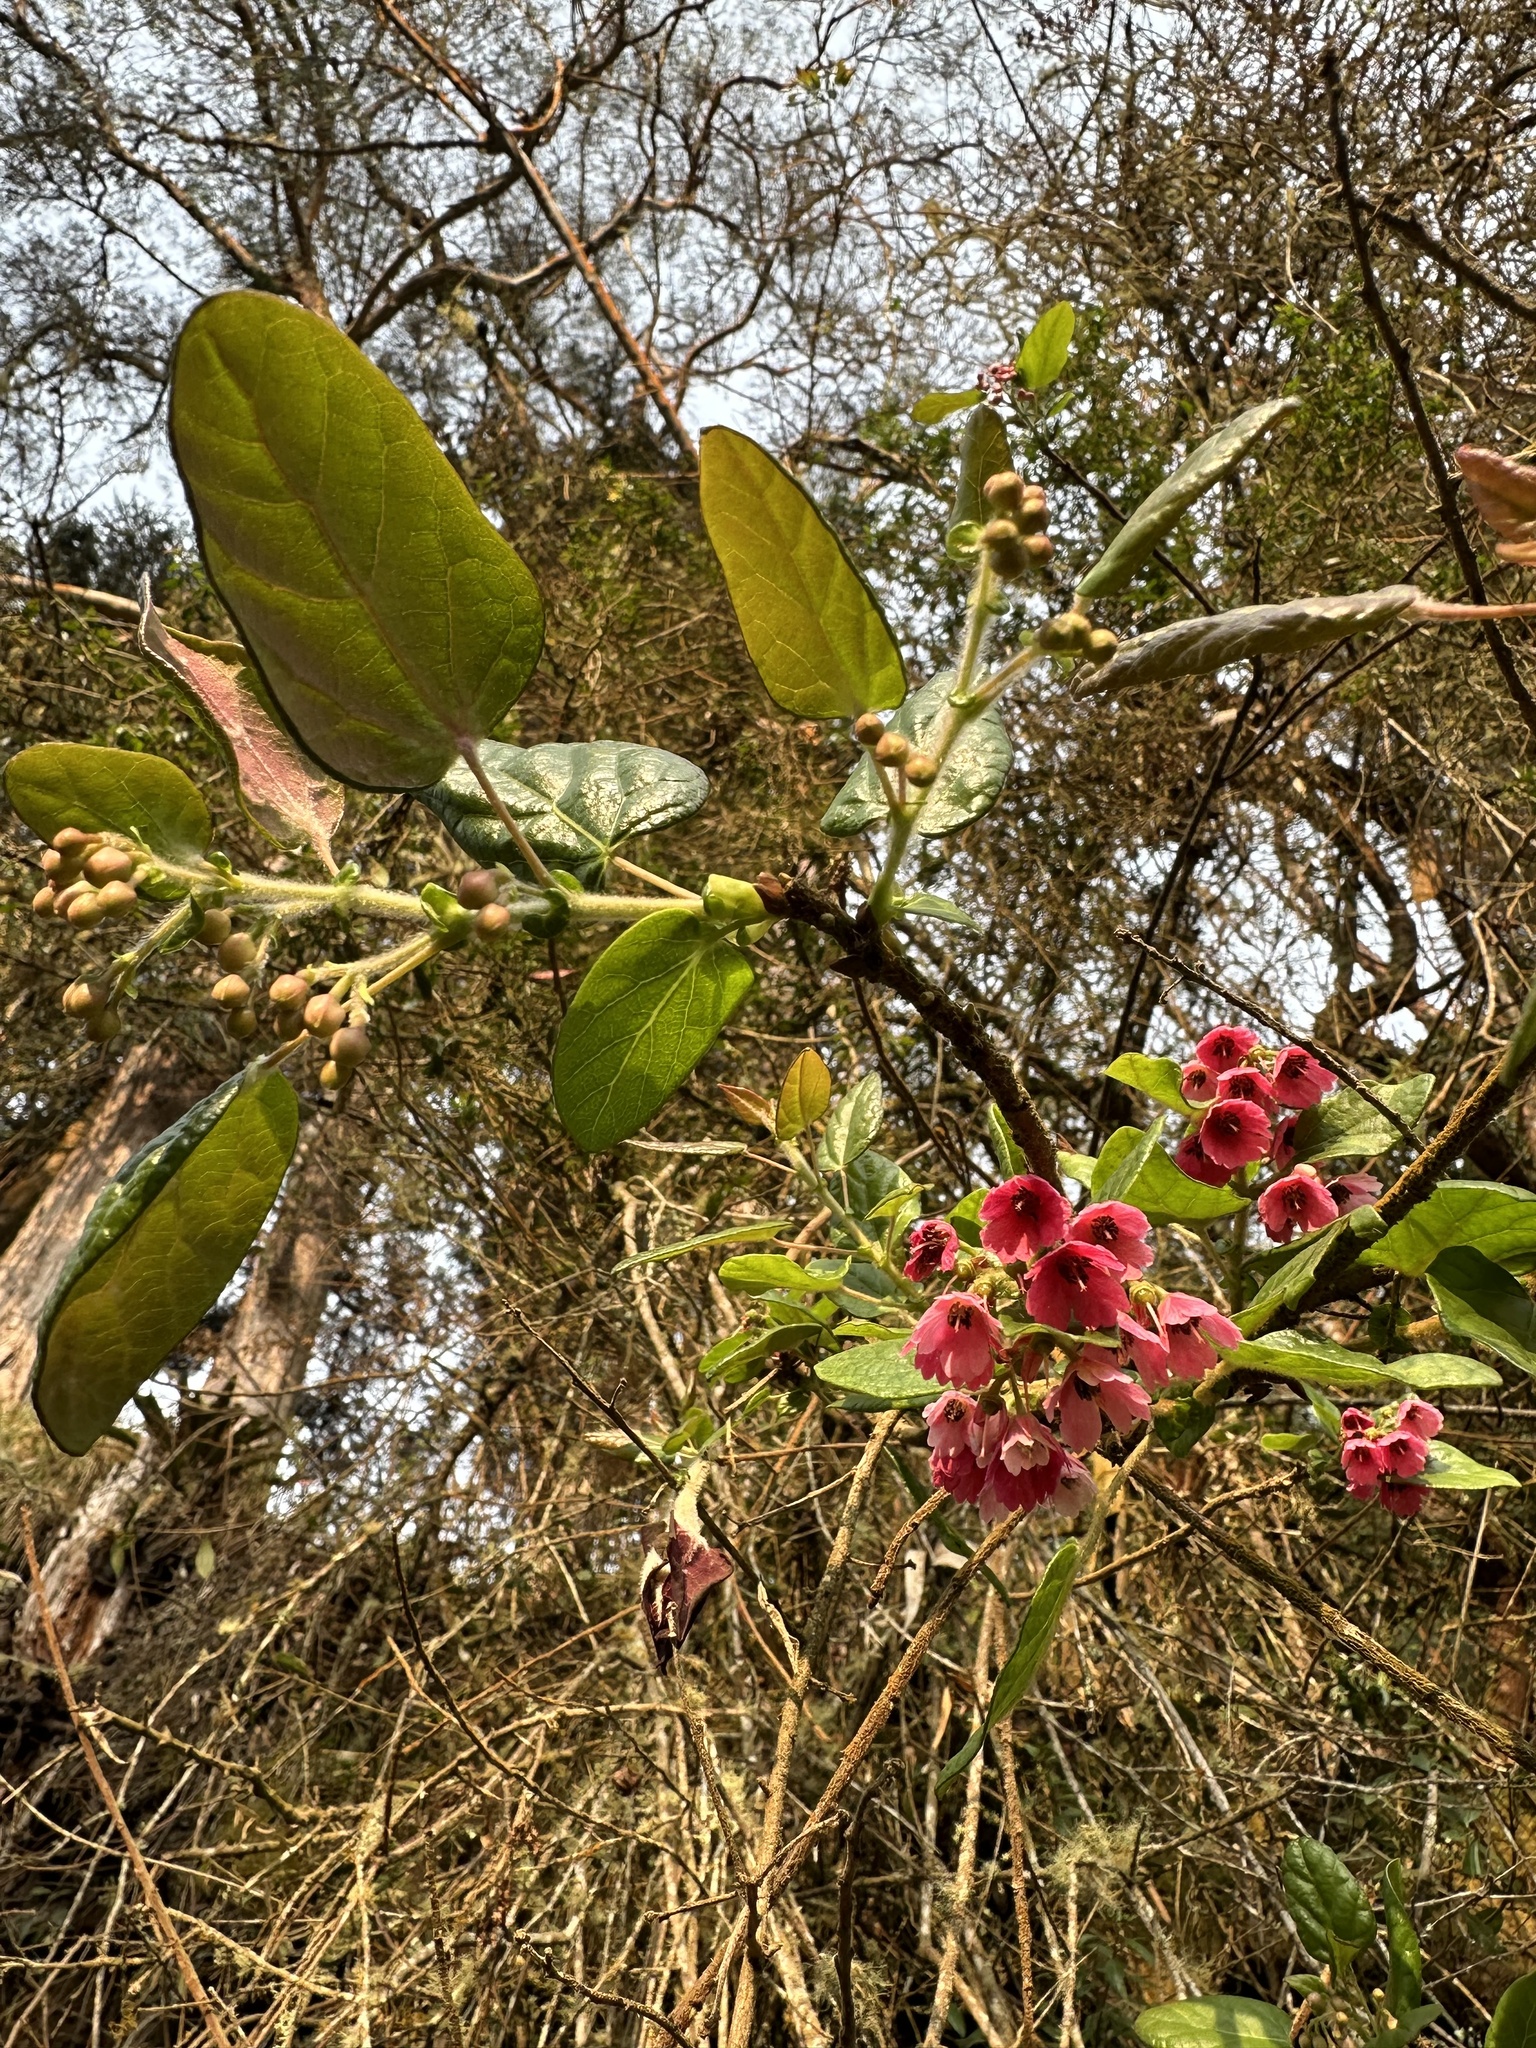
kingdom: Plantae
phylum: Tracheophyta
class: Magnoliopsida
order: Oxalidales
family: Elaeocarpaceae
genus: Vallea
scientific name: Vallea stipularis
